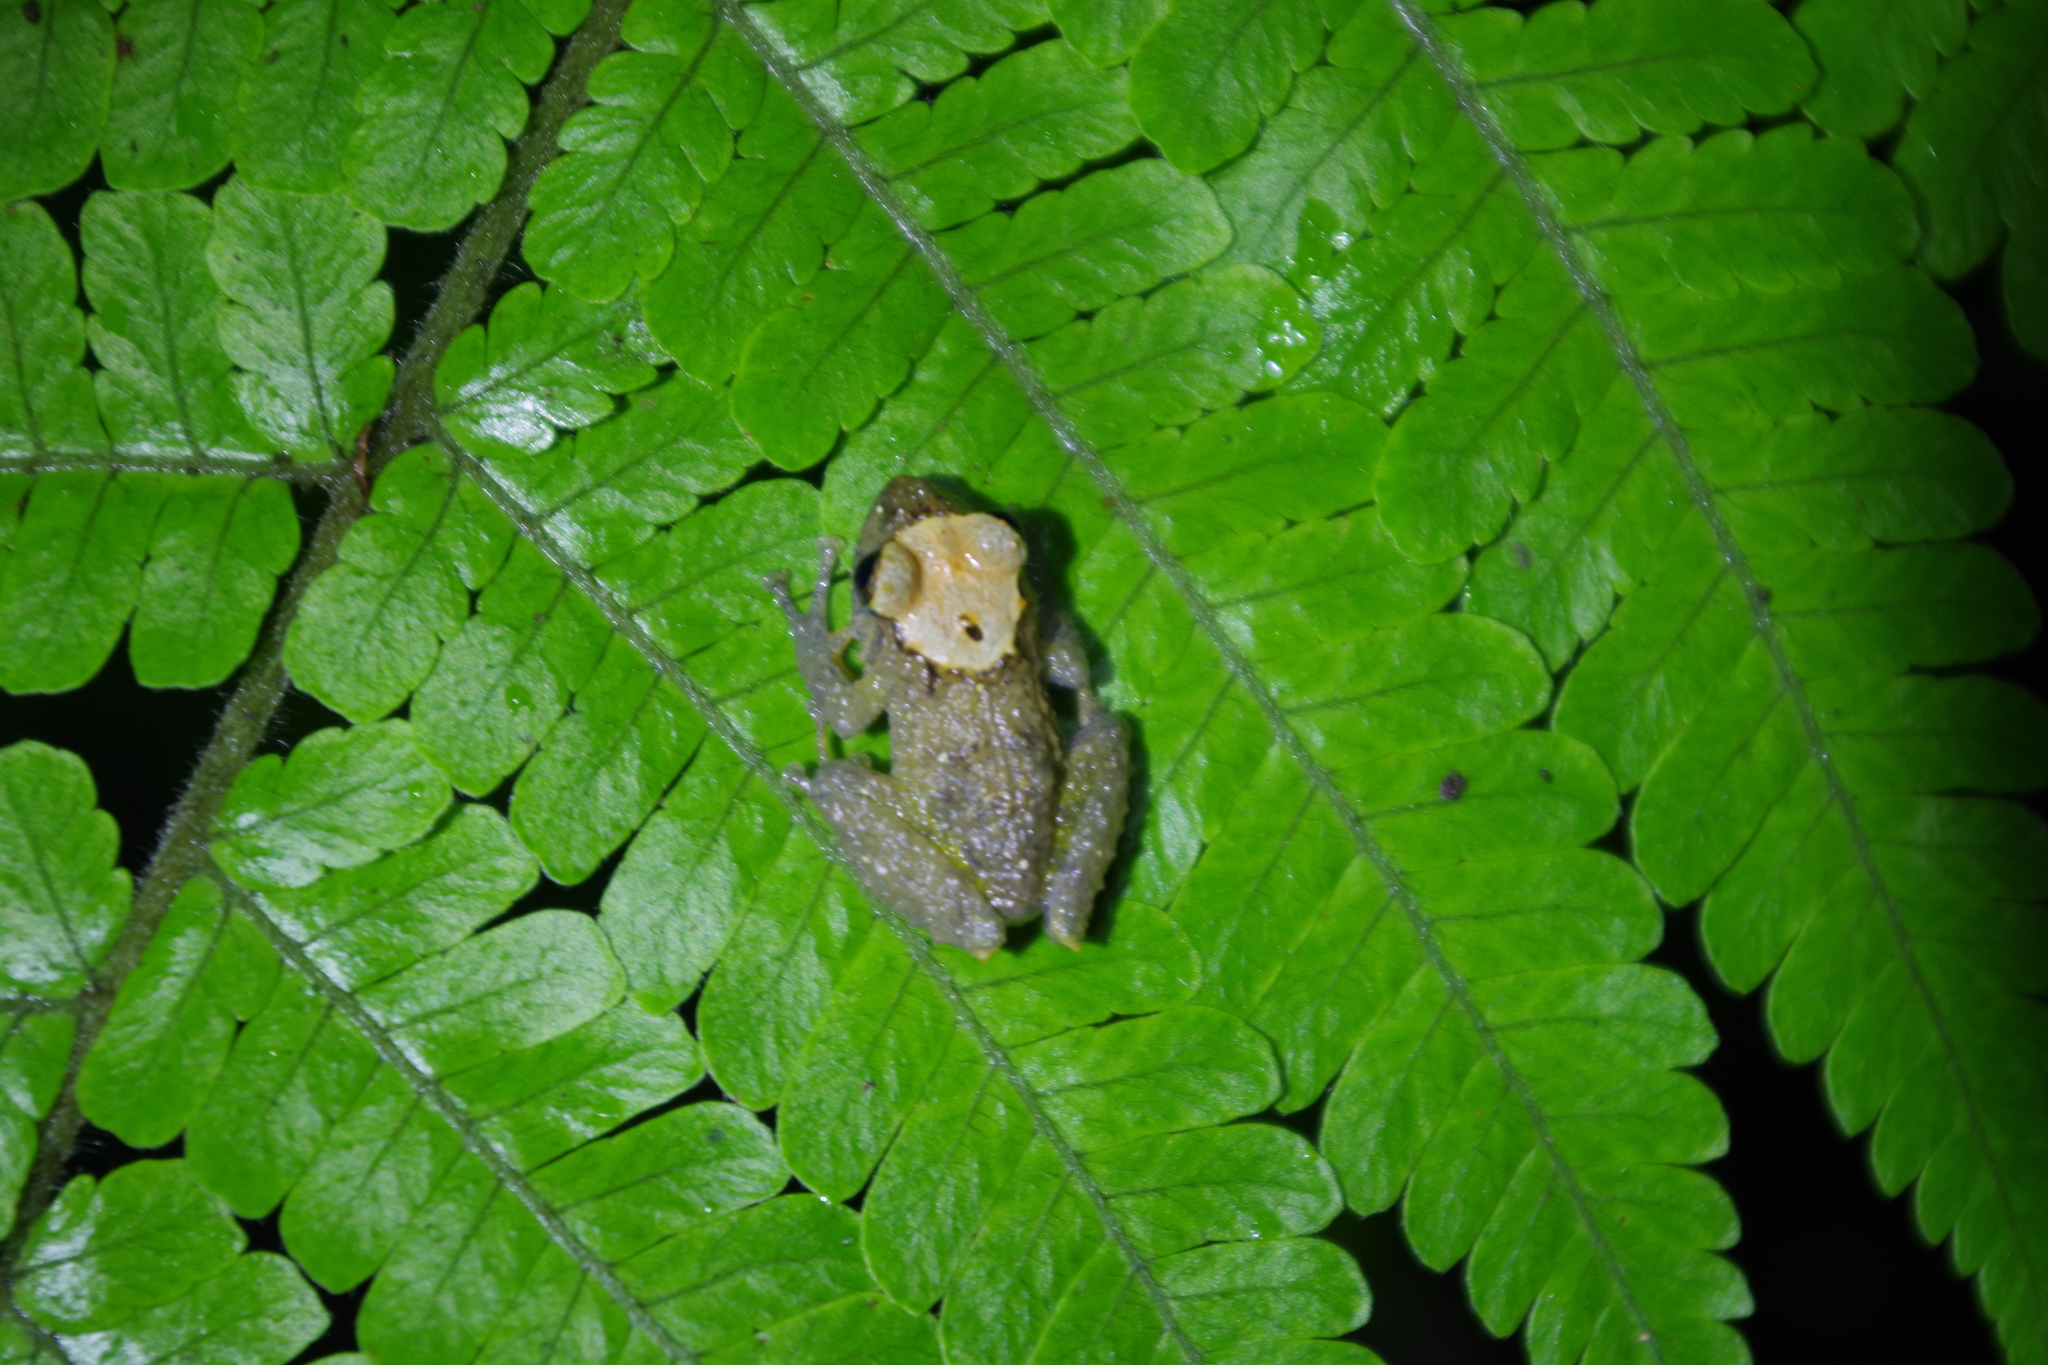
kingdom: Animalia
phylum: Chordata
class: Amphibia
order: Anura
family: Craugastoridae
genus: Pristimantis
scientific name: Pristimantis cruentus
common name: Chiriqui robber frog
